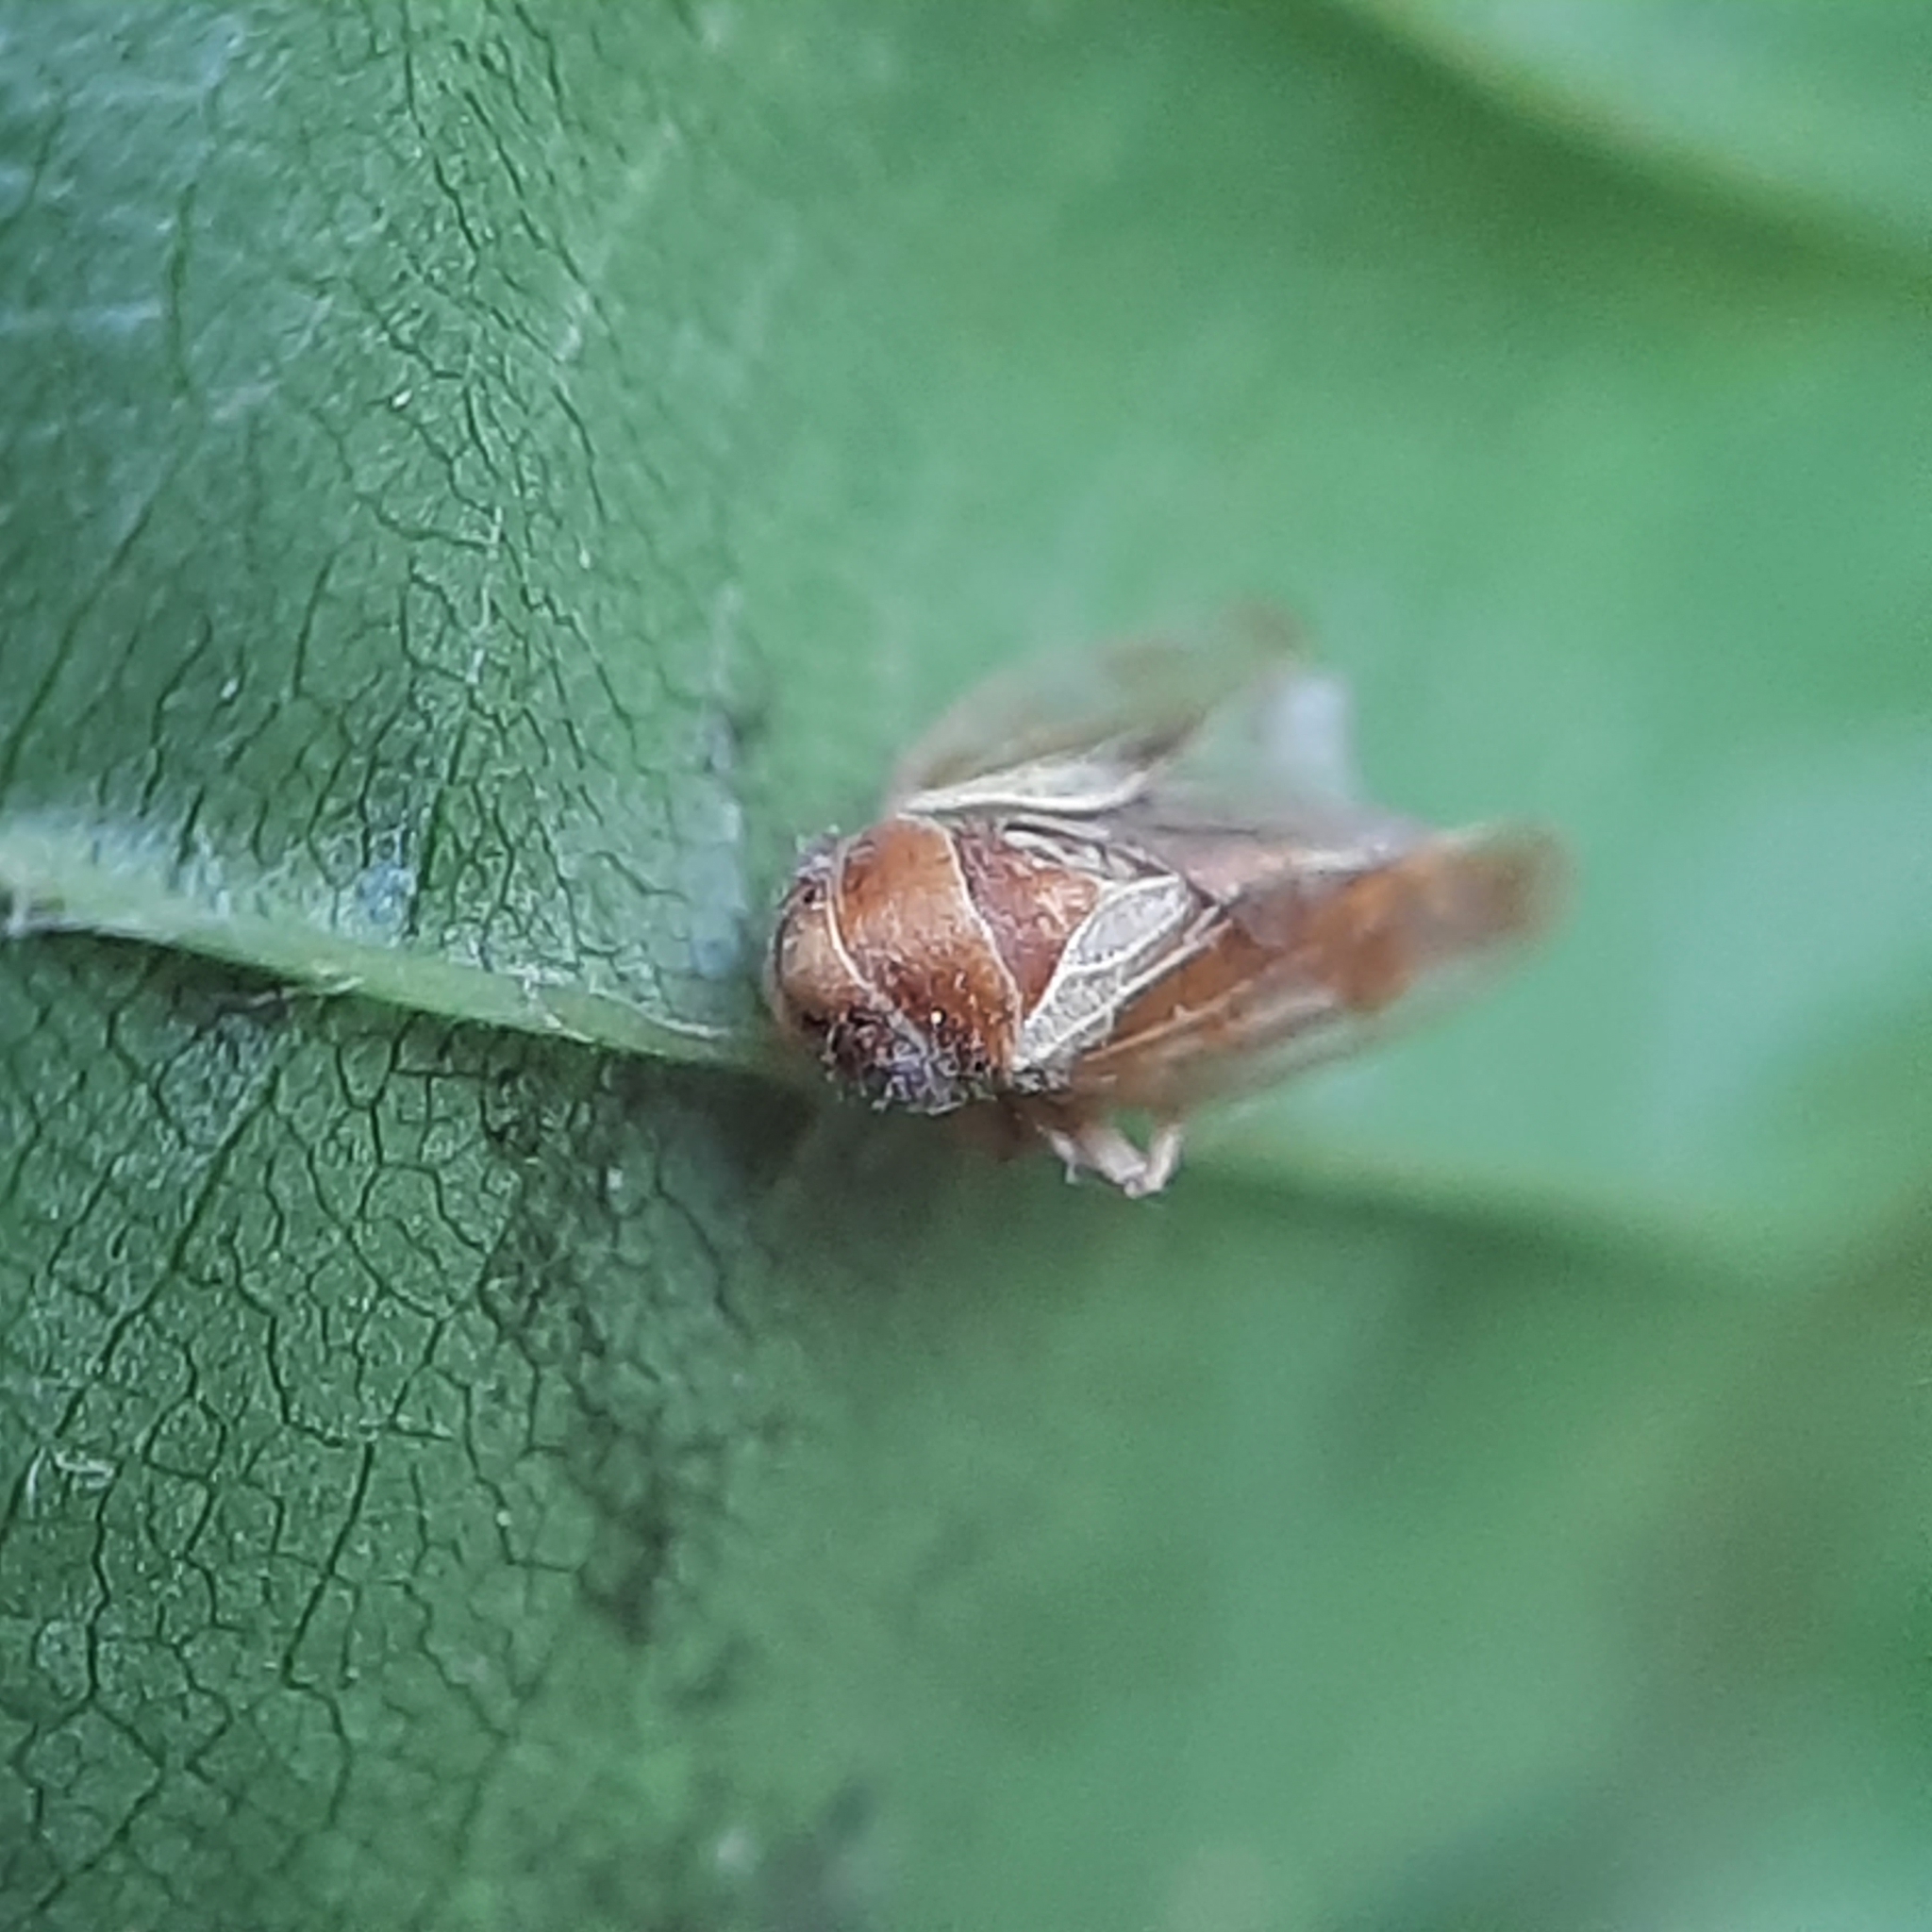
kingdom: Animalia
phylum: Arthropoda
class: Insecta
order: Hemiptera
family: Cicadellidae
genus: Oncopsis
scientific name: Oncopsis
